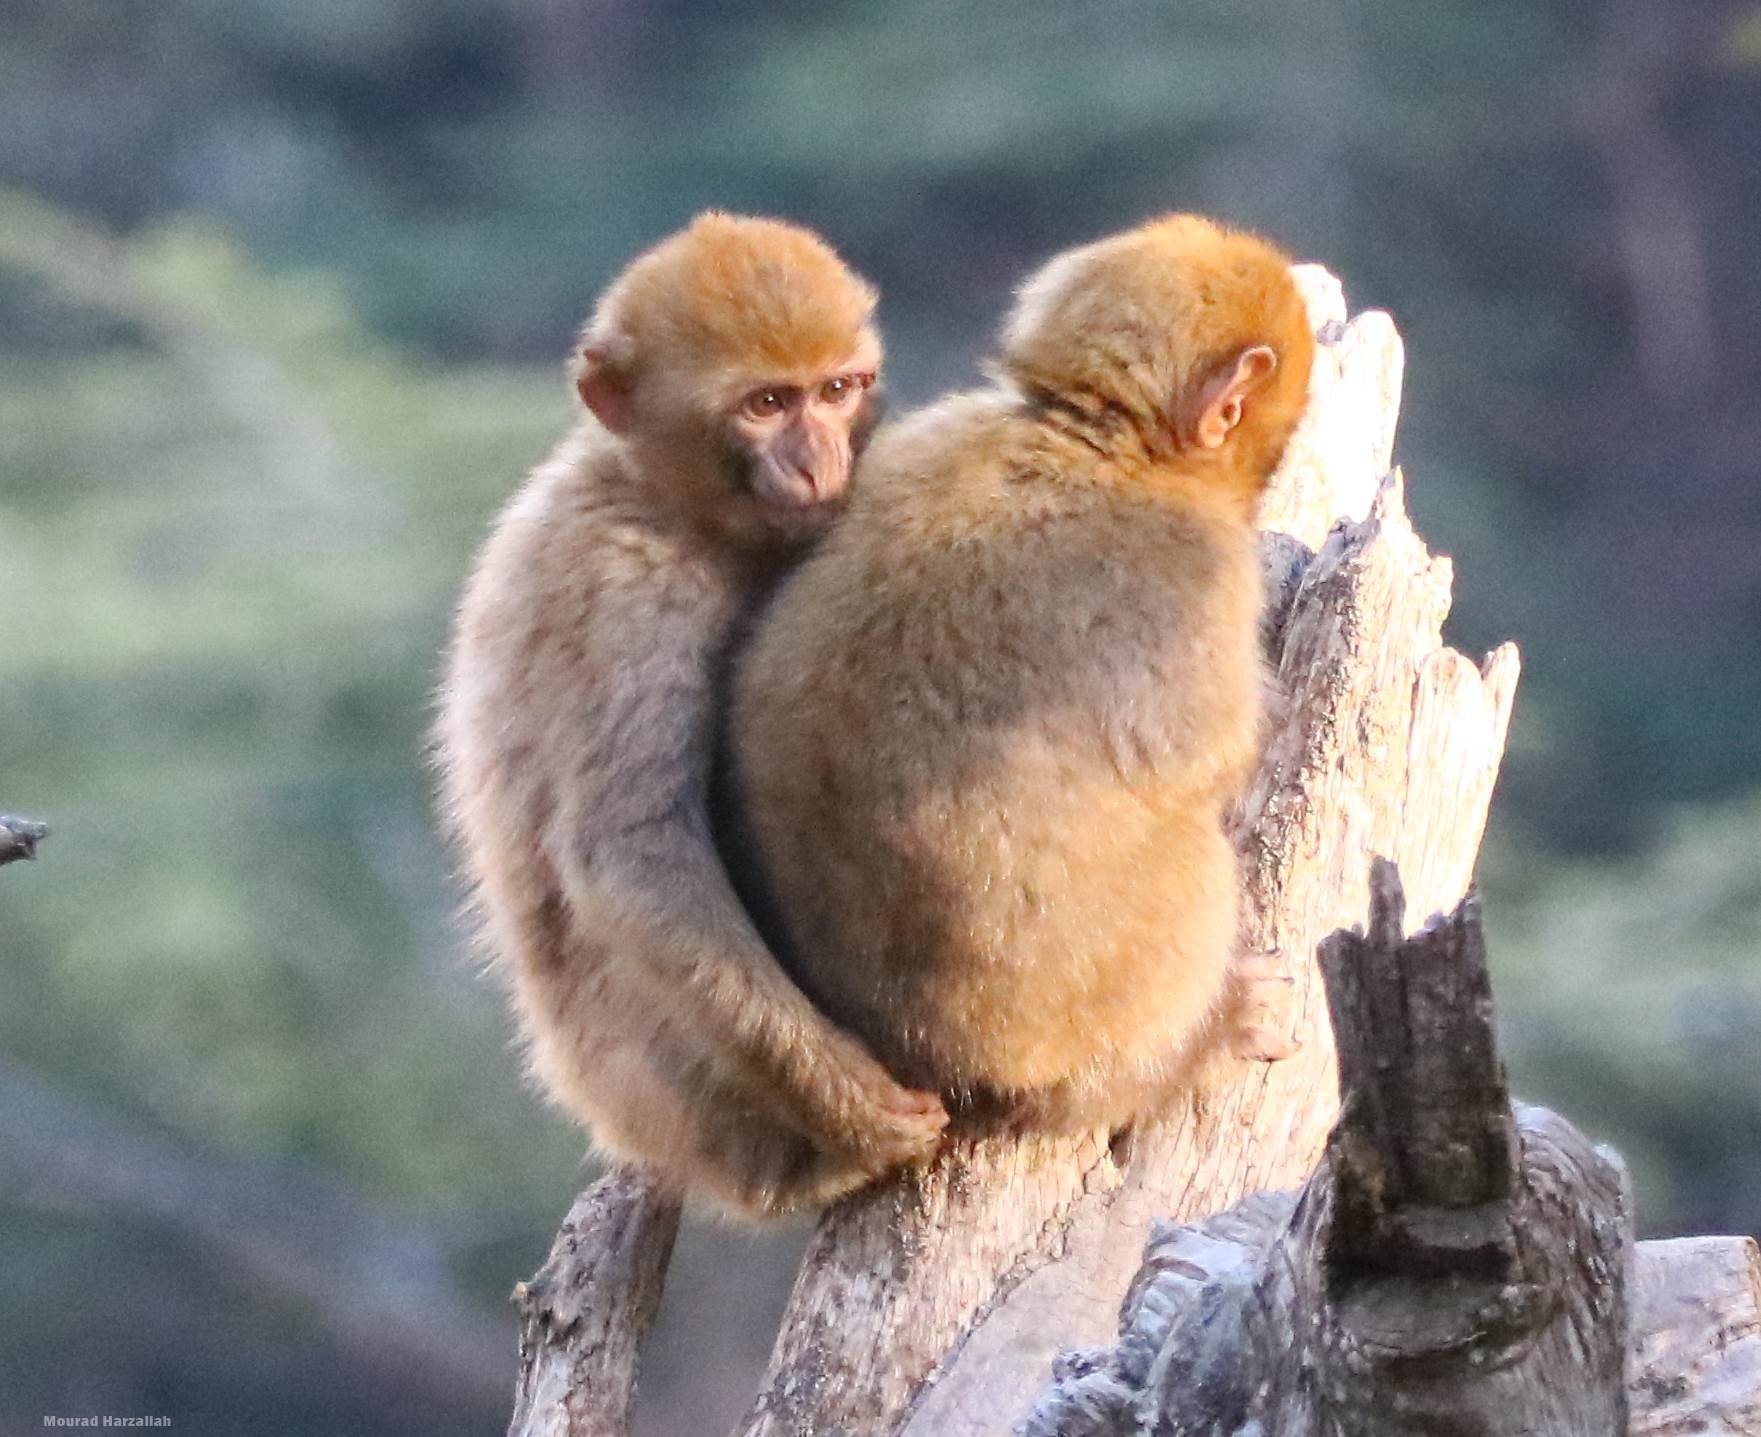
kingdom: Animalia
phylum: Chordata
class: Mammalia
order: Primates
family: Cercopithecidae
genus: Macaca
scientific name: Macaca sylvanus
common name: Barbary macaque
